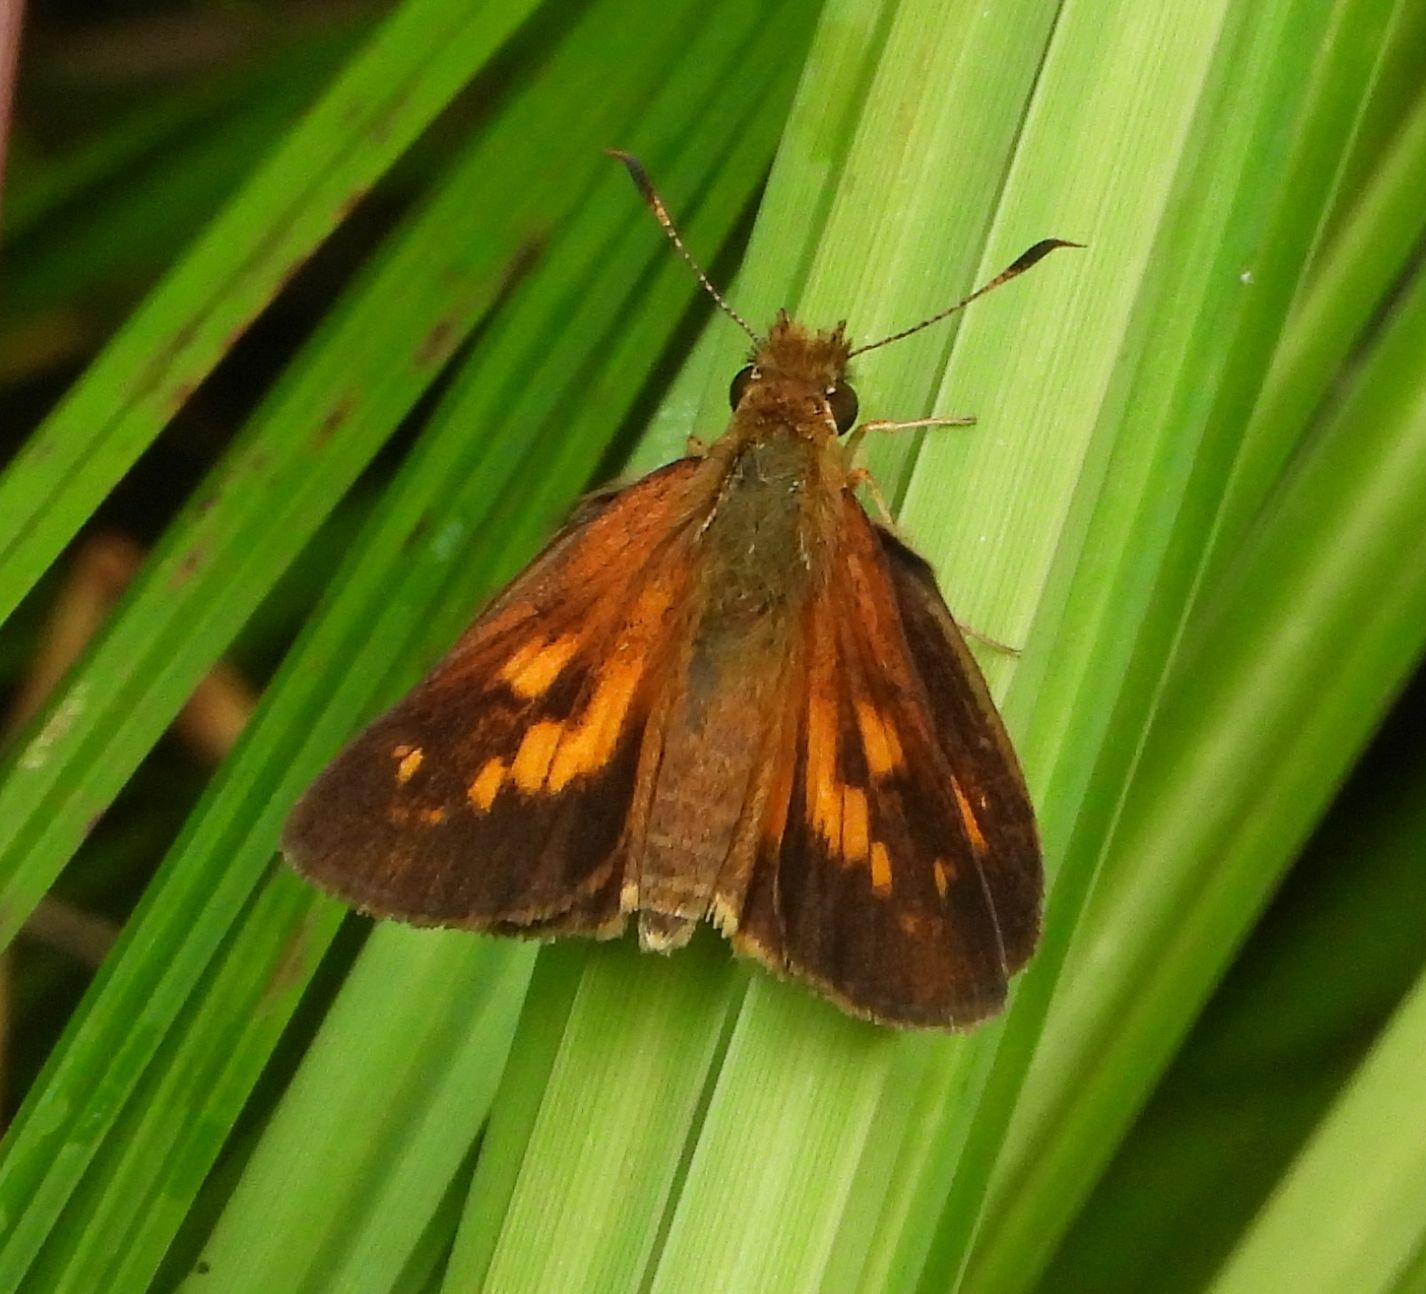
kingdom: Animalia
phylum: Arthropoda
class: Insecta
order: Lepidoptera
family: Hesperiidae
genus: Poanes
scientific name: Poanes viator
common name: Broad-winged skipper
